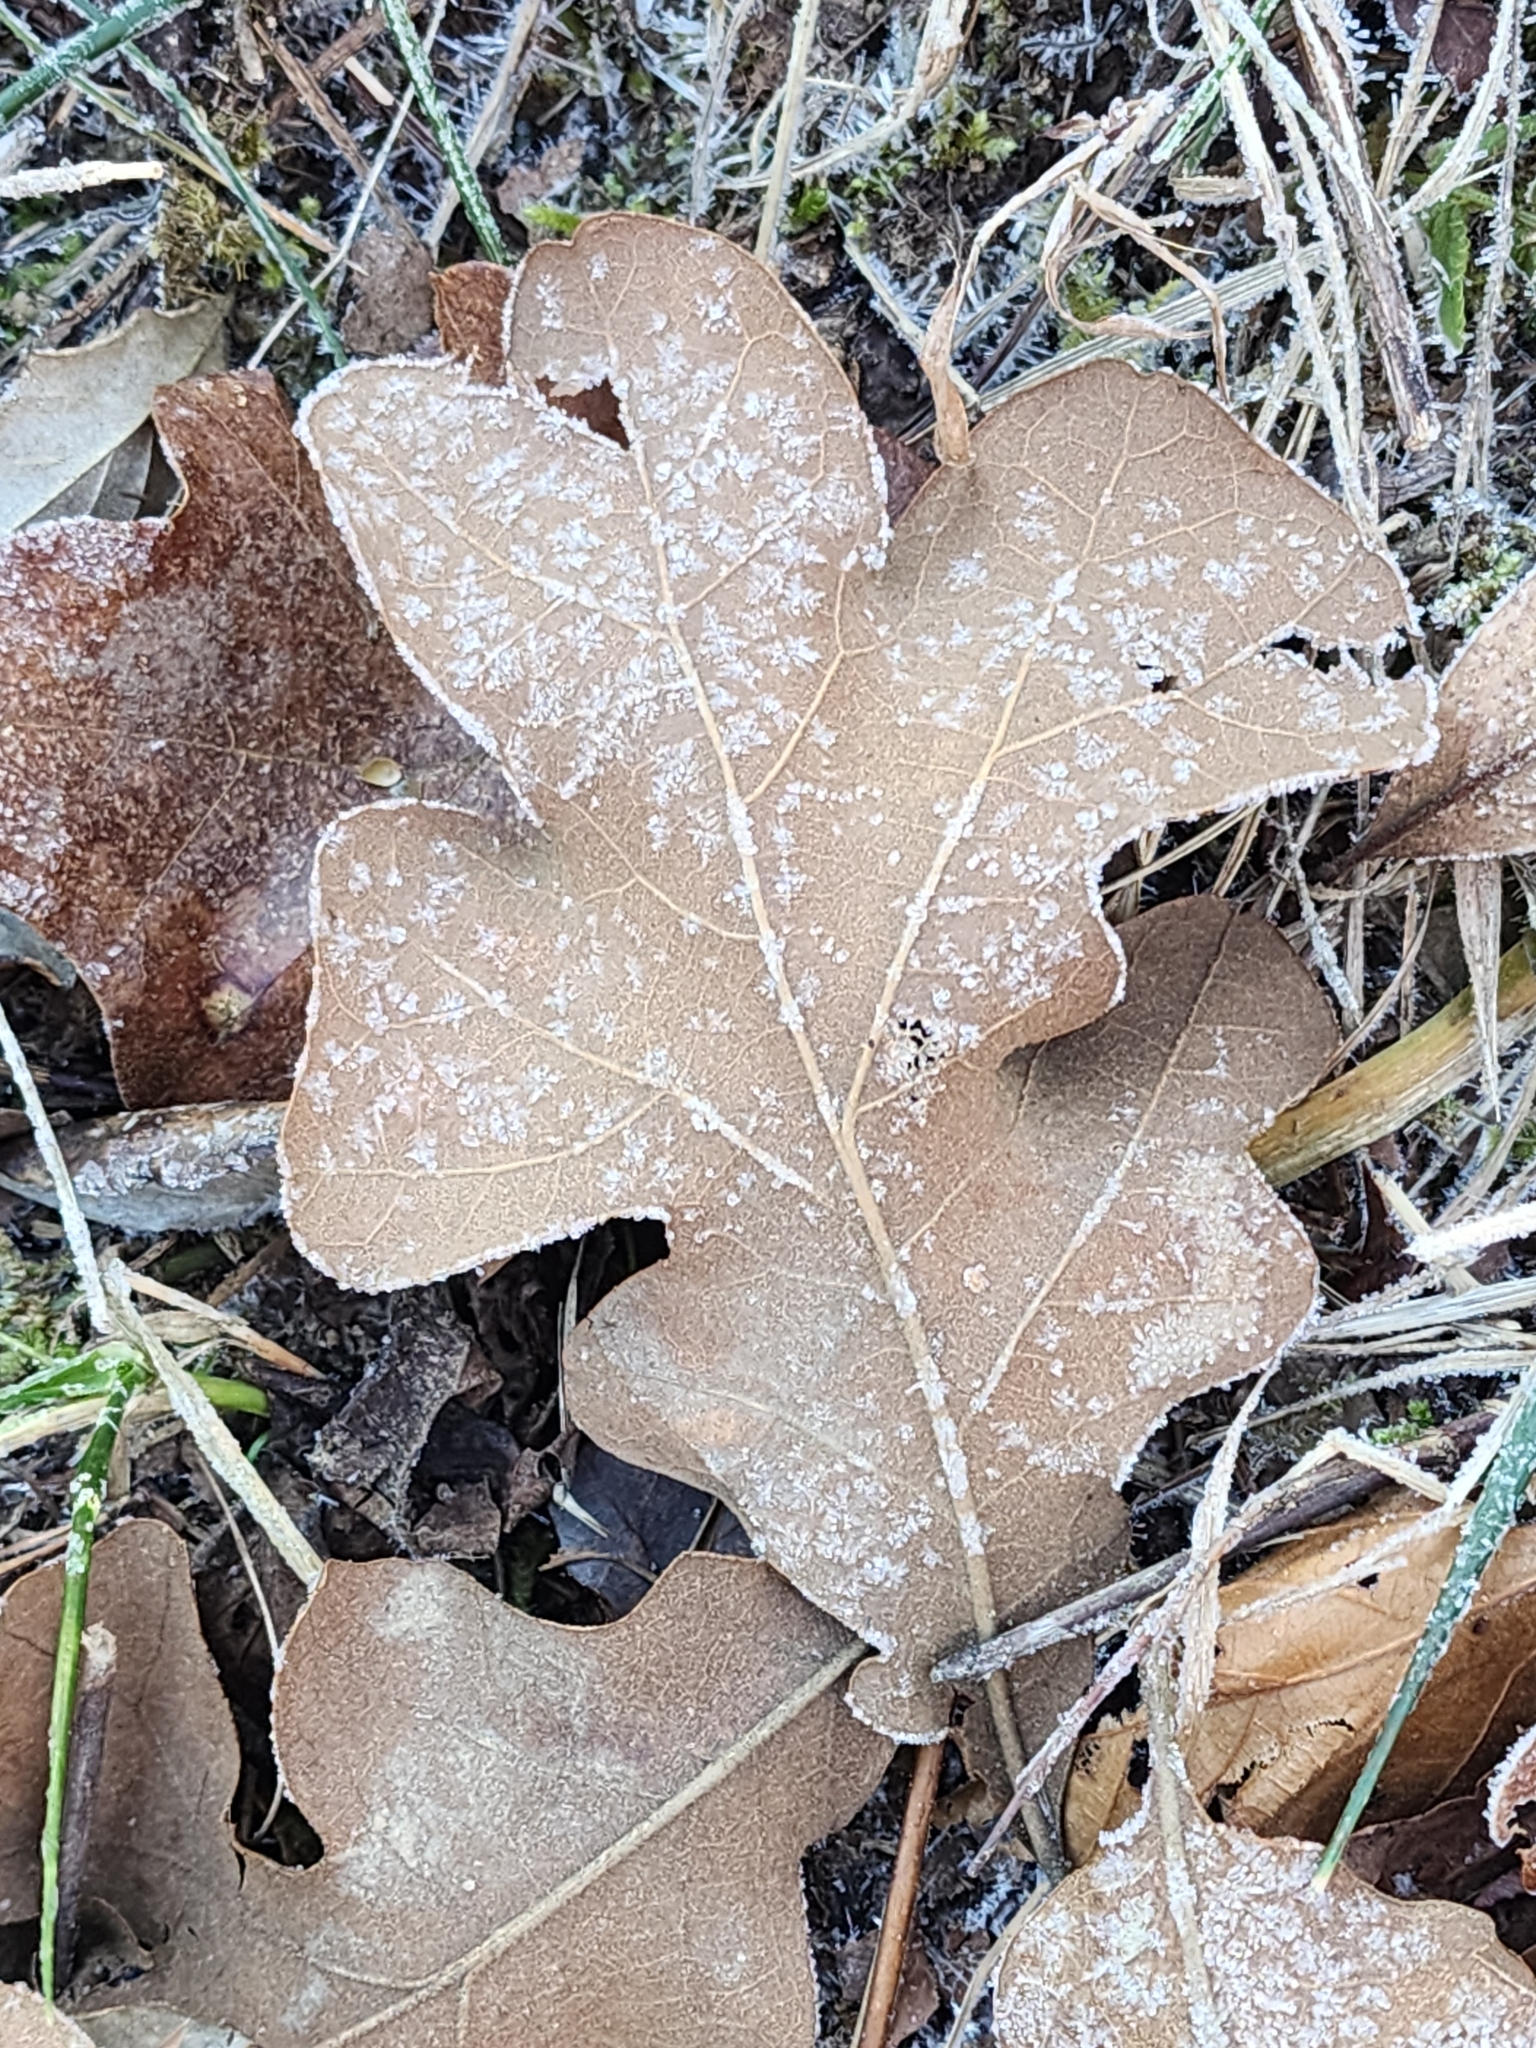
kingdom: Plantae
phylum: Tracheophyta
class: Magnoliopsida
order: Fagales
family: Fagaceae
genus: Quercus
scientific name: Quercus stellata
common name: Post oak
